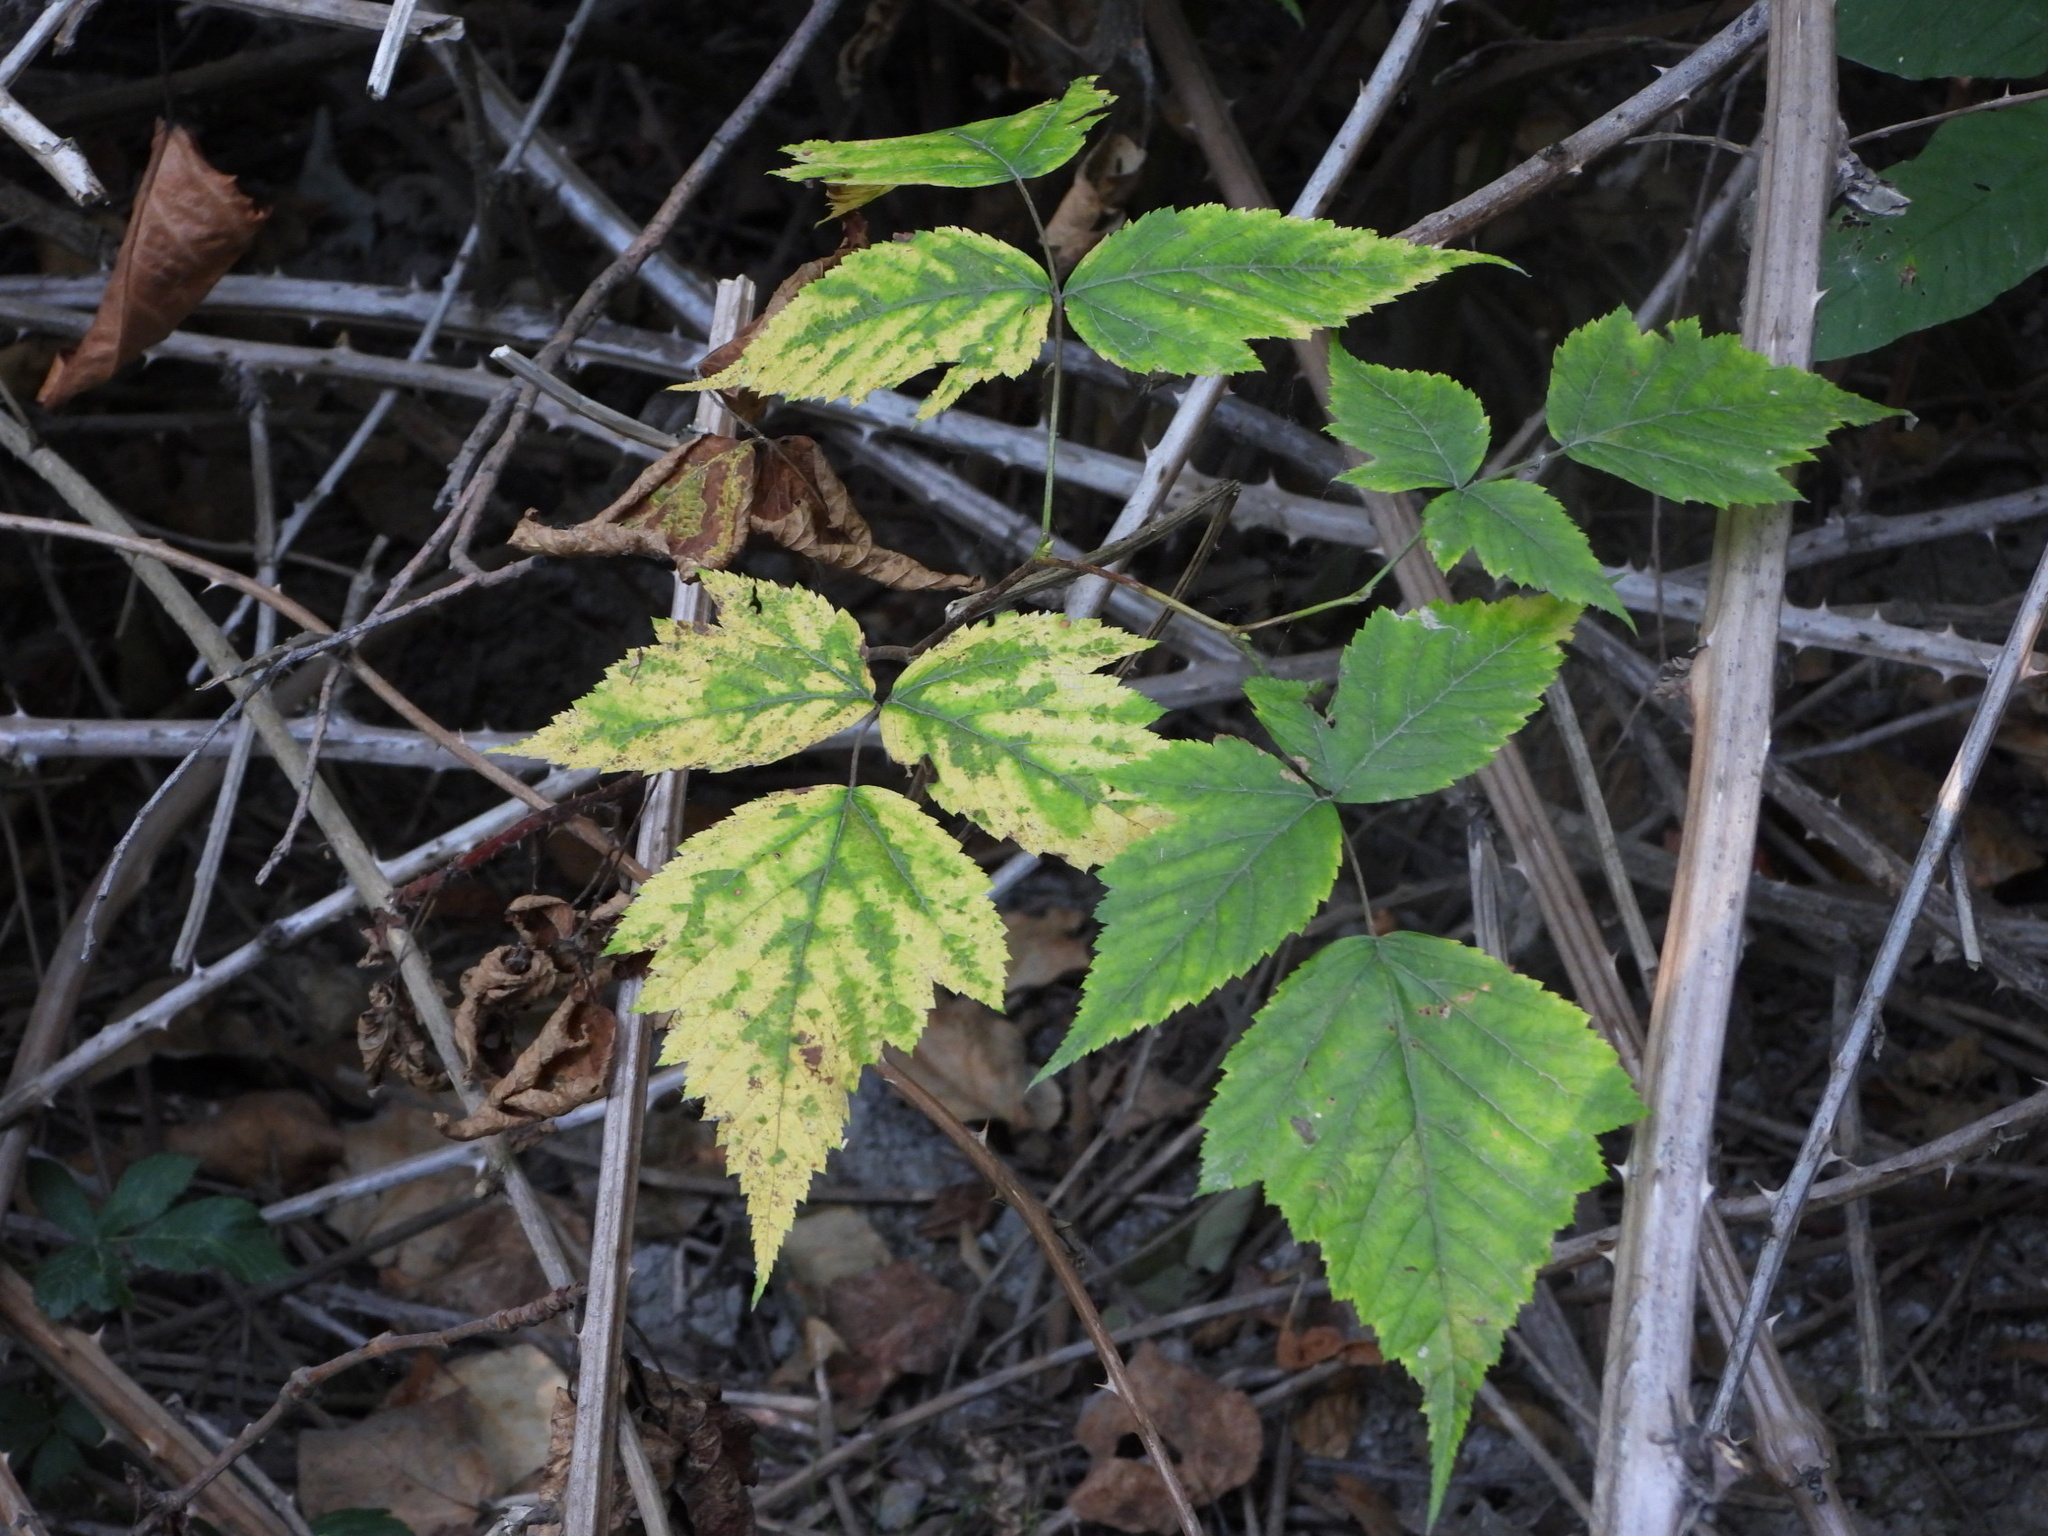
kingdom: Plantae
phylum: Tracheophyta
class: Magnoliopsida
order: Rosales
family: Rosaceae
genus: Rubus
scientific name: Rubus spectabilis
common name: Salmonberry
